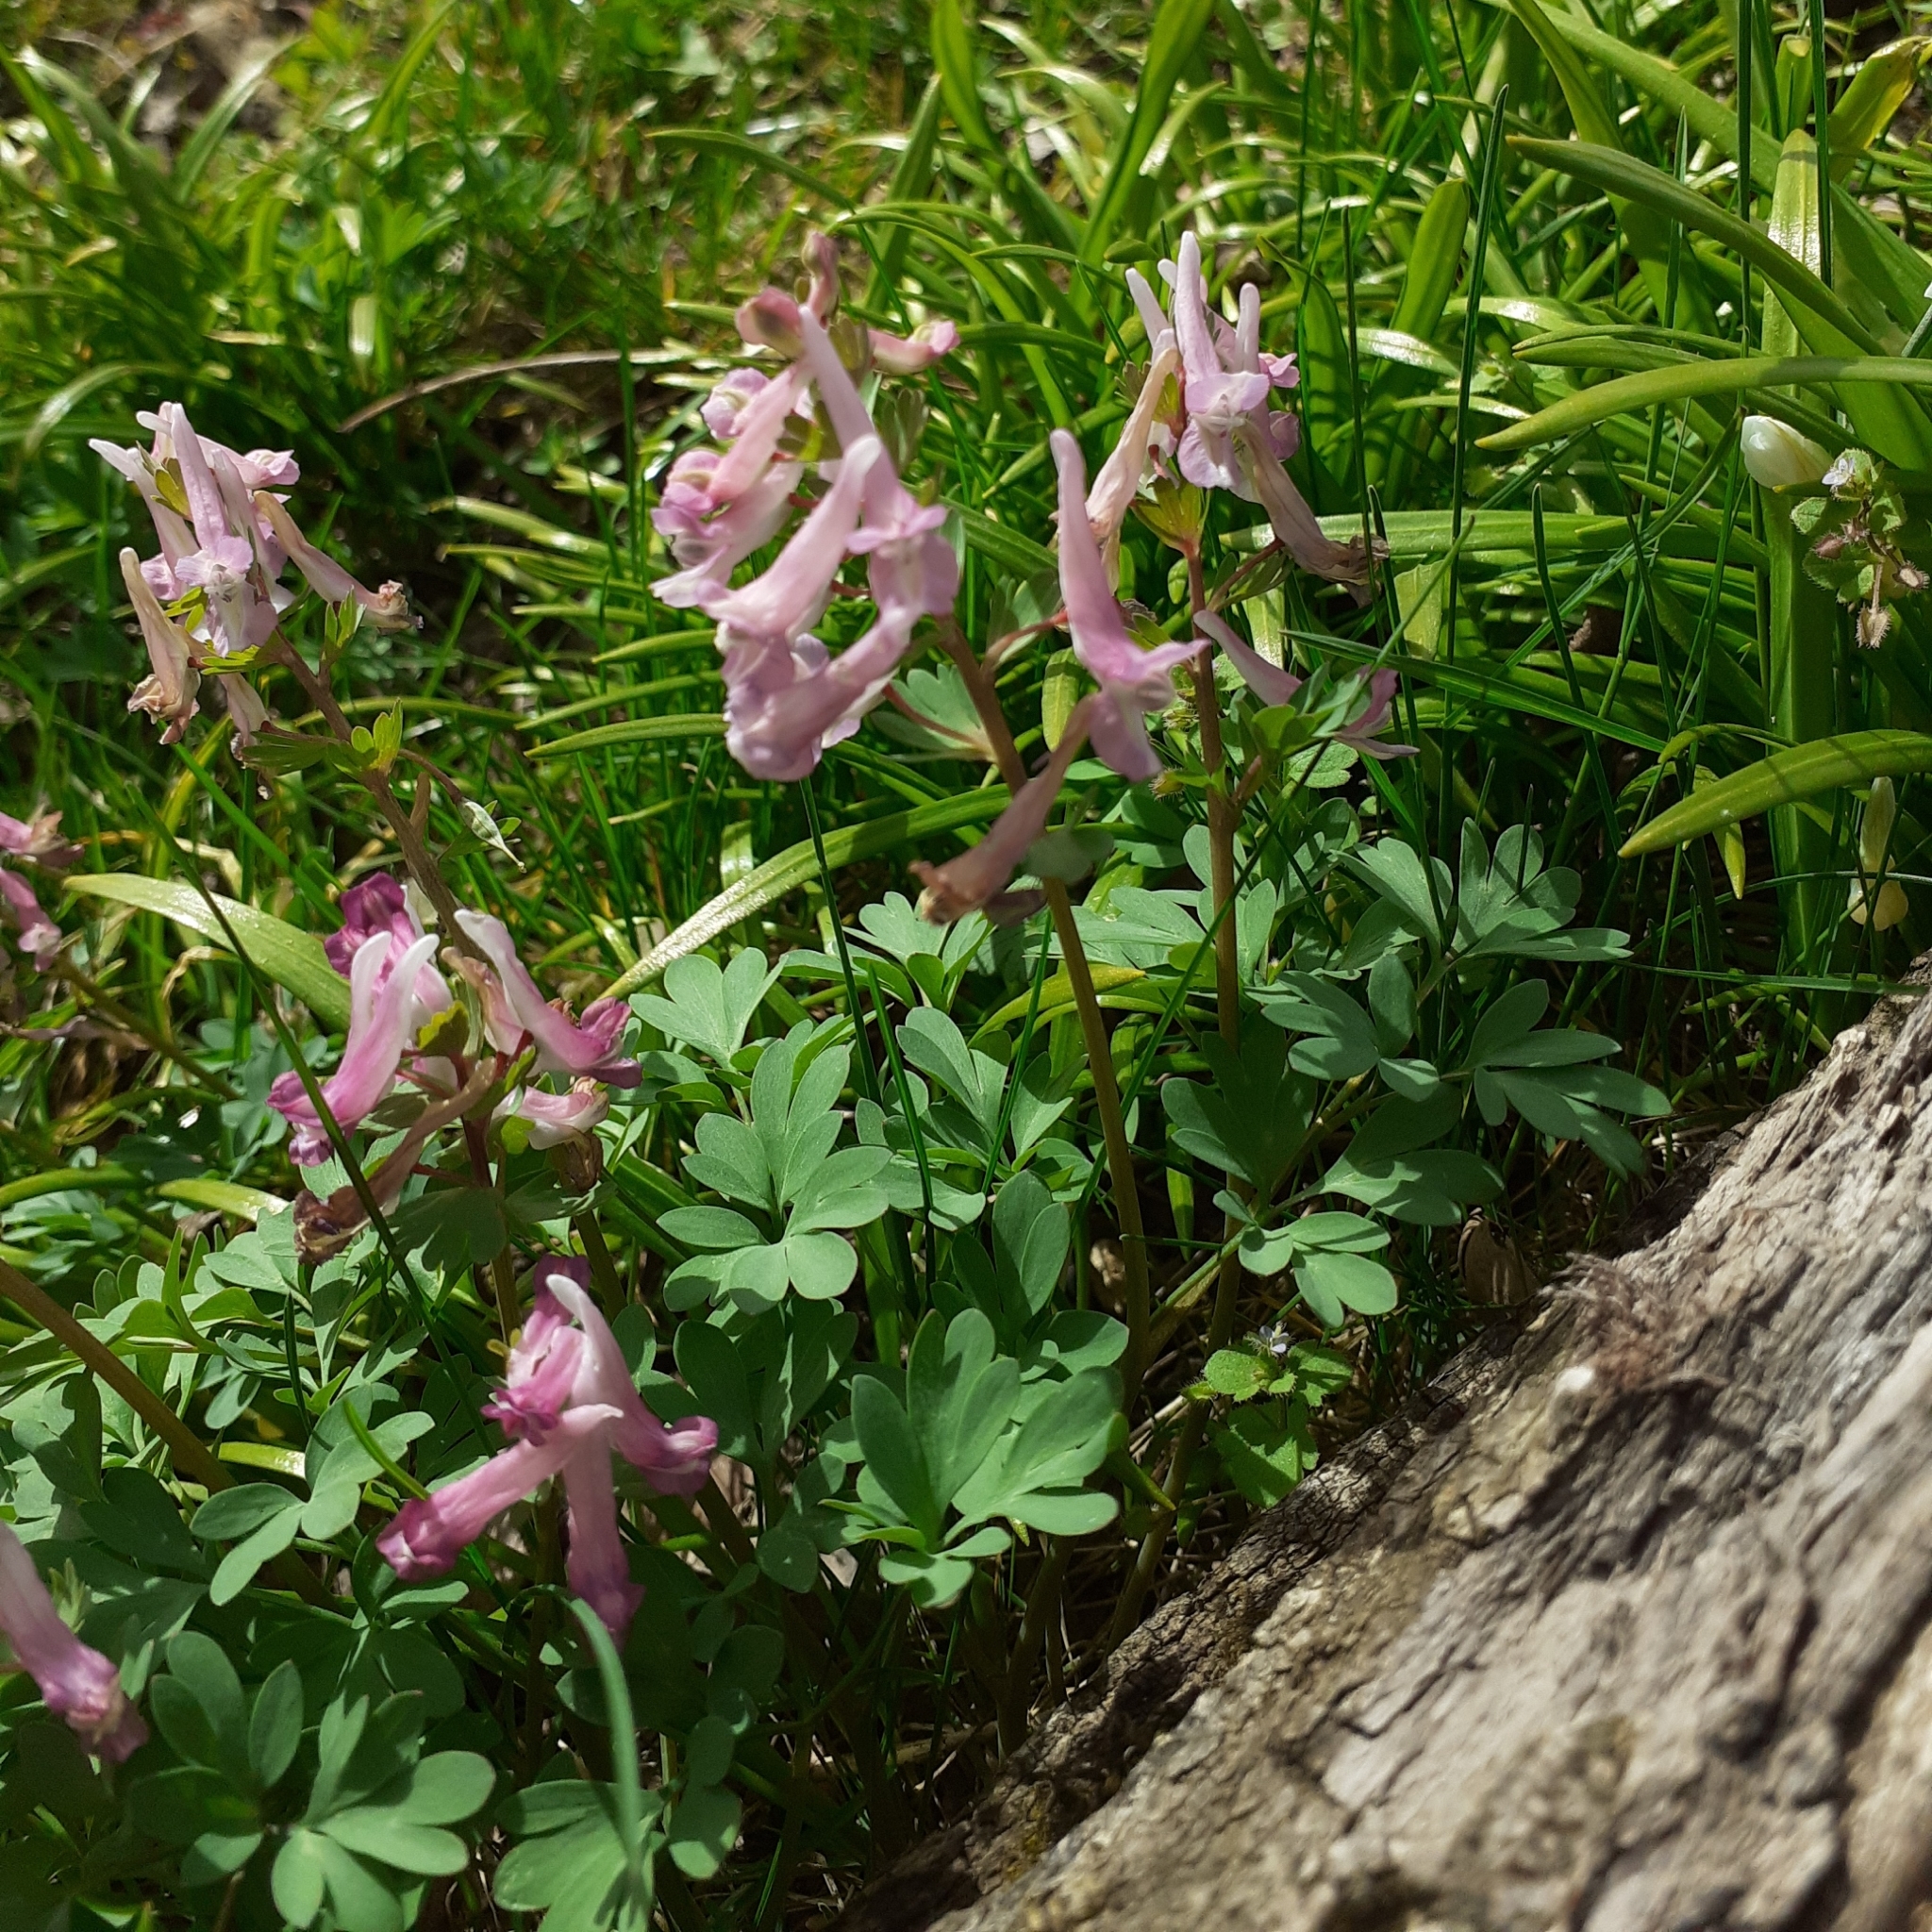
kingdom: Plantae
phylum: Tracheophyta
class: Magnoliopsida
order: Ranunculales
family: Papaveraceae
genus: Corydalis
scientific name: Corydalis solida
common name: Bird-in-a-bush
